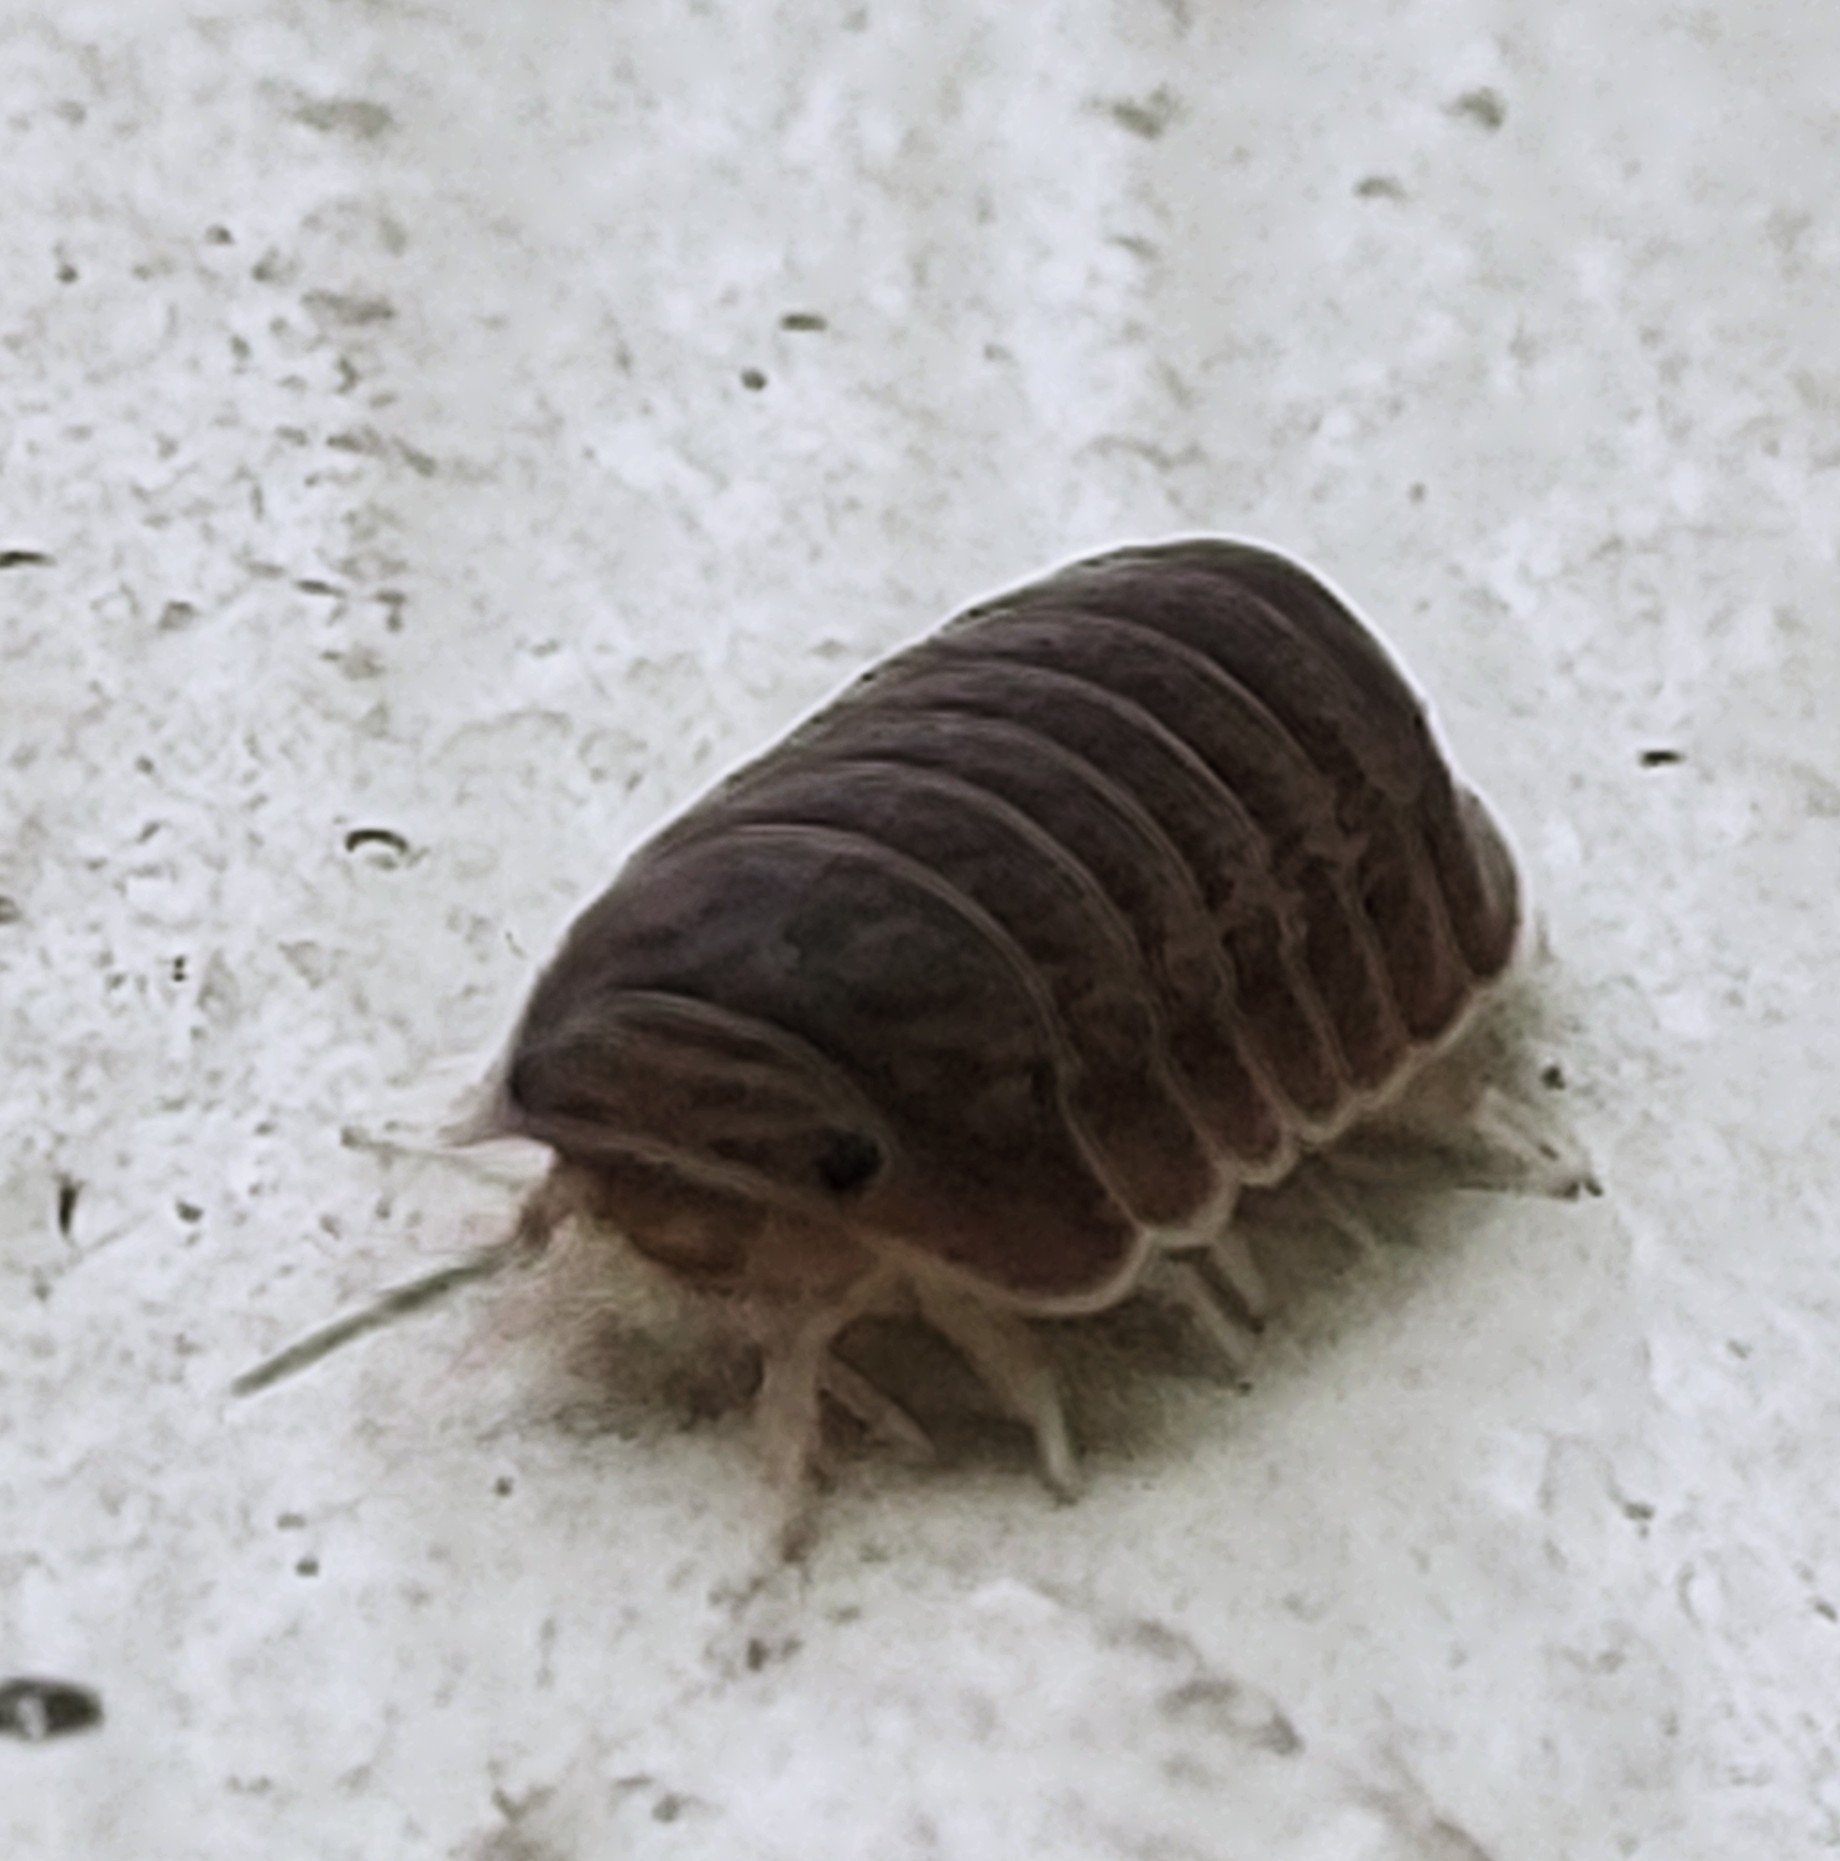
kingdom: Animalia
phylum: Arthropoda
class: Malacostraca
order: Isopoda
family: Armadillidae
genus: Cubaris
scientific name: Cubaris murina
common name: Pillbug
